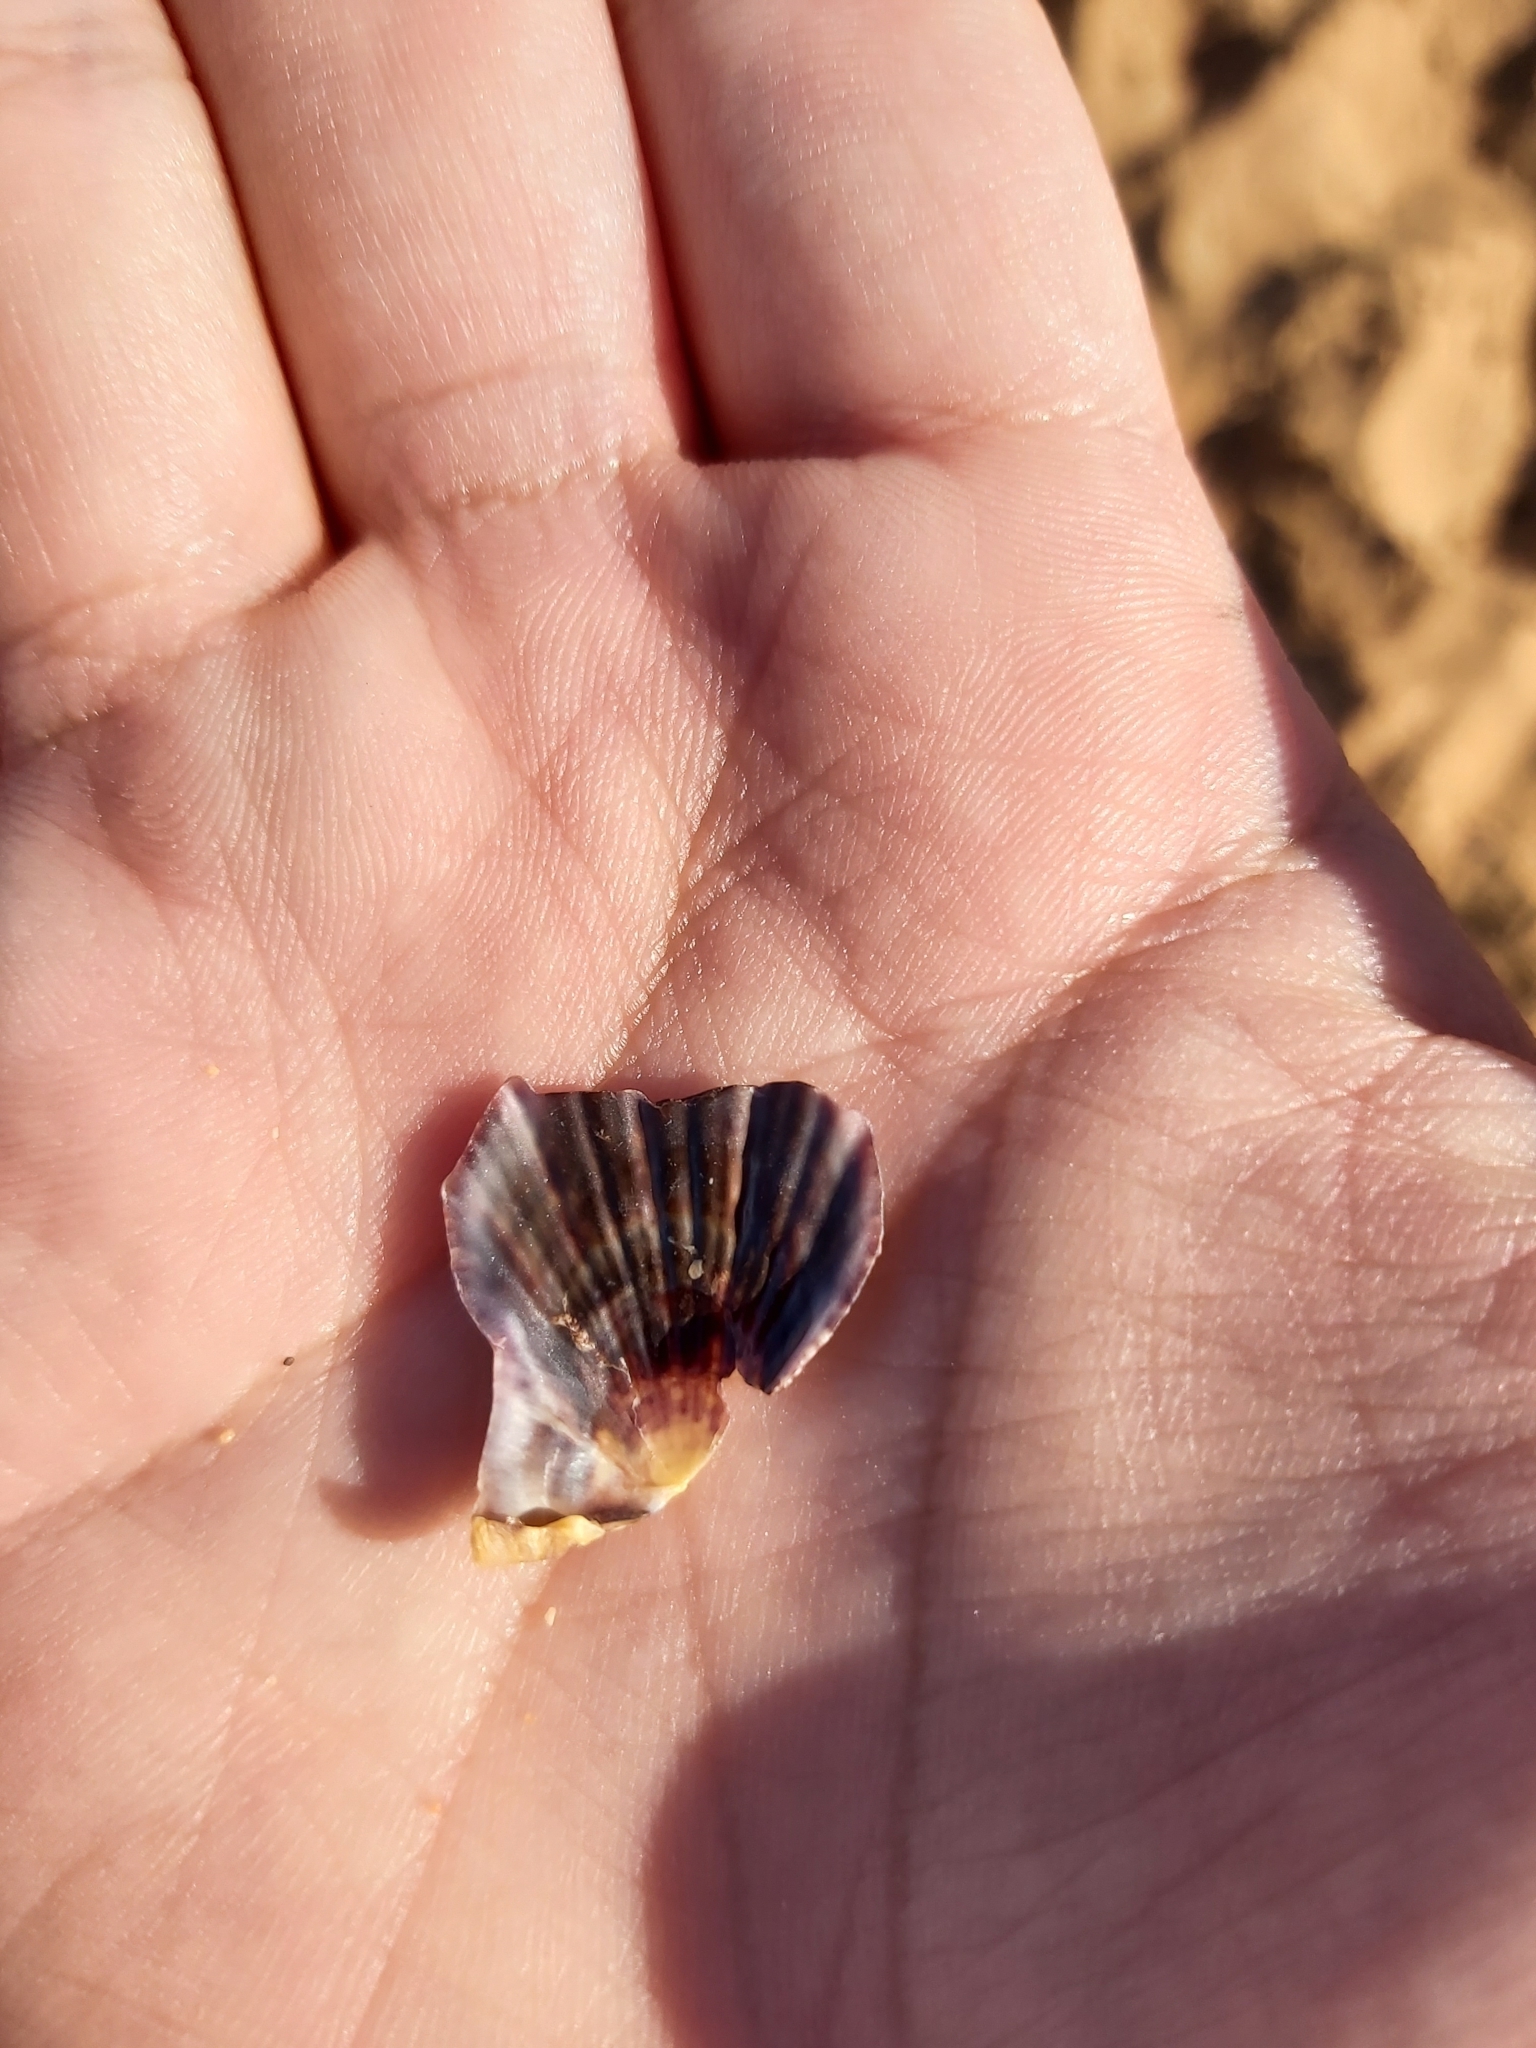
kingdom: Animalia
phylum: Mollusca
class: Bivalvia
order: Pectinida
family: Pectinidae
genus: Scaeochlamys
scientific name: Scaeochlamys livida
